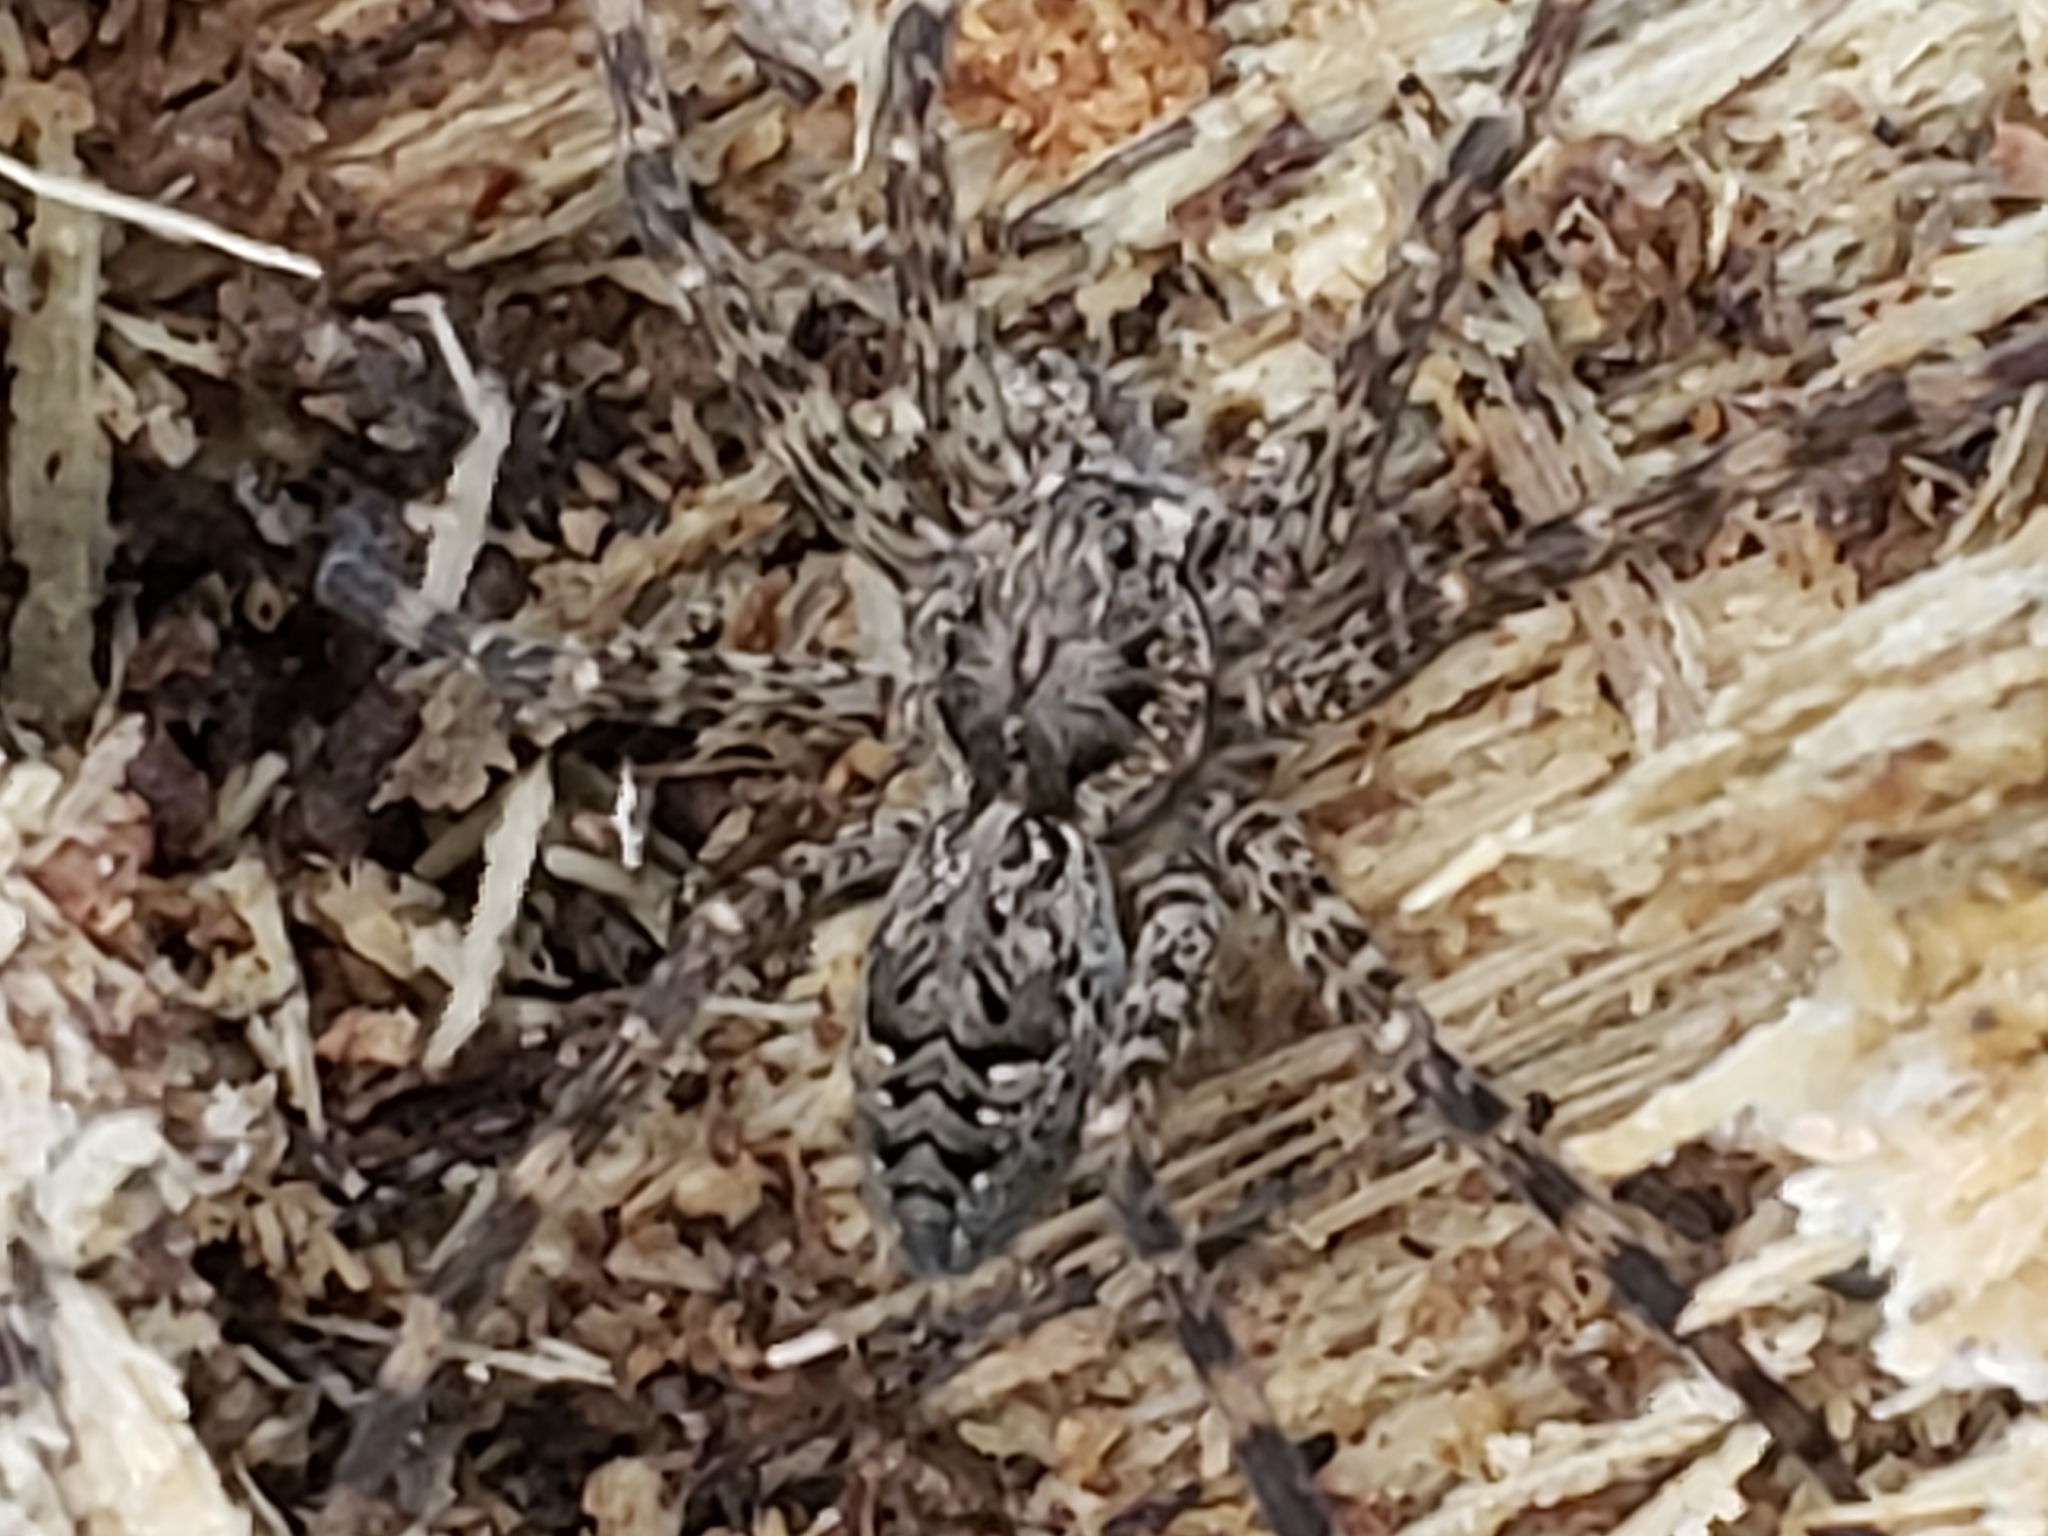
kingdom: Animalia
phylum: Arthropoda
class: Arachnida
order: Araneae
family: Pisauridae
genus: Dolomedes
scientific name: Dolomedes tenebrosus
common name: Dark fishing spider
